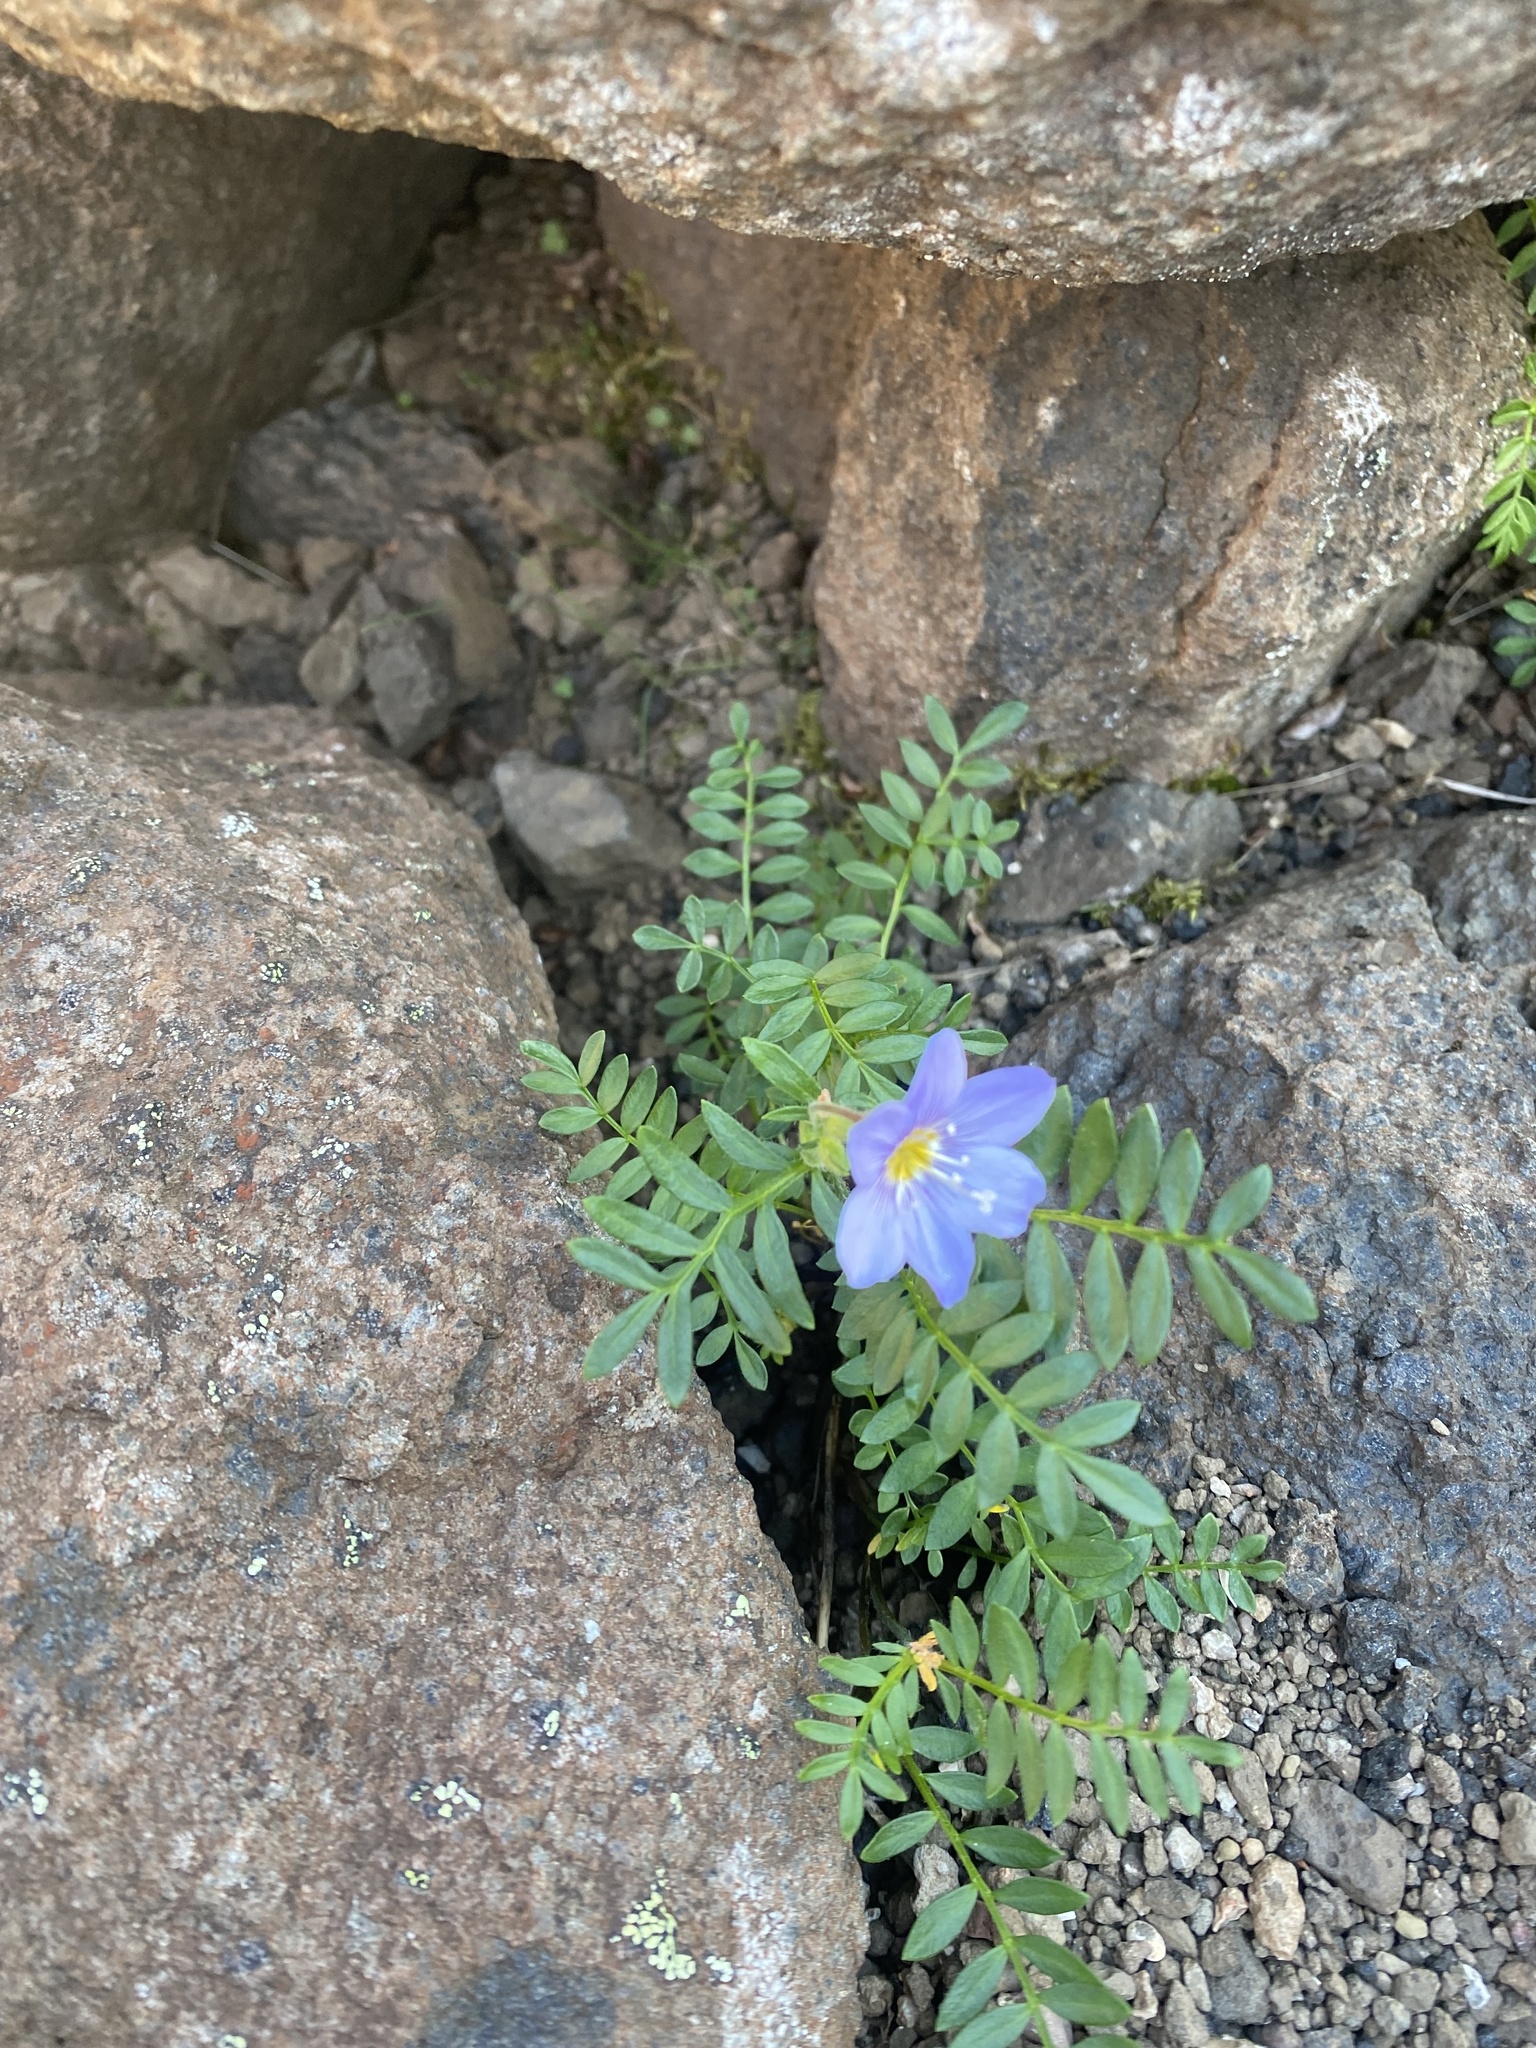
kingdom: Plantae
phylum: Tracheophyta
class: Magnoliopsida
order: Ericales
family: Polemoniaceae
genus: Polemonium
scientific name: Polemonium boreale
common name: Boreal jacob's-ladder
